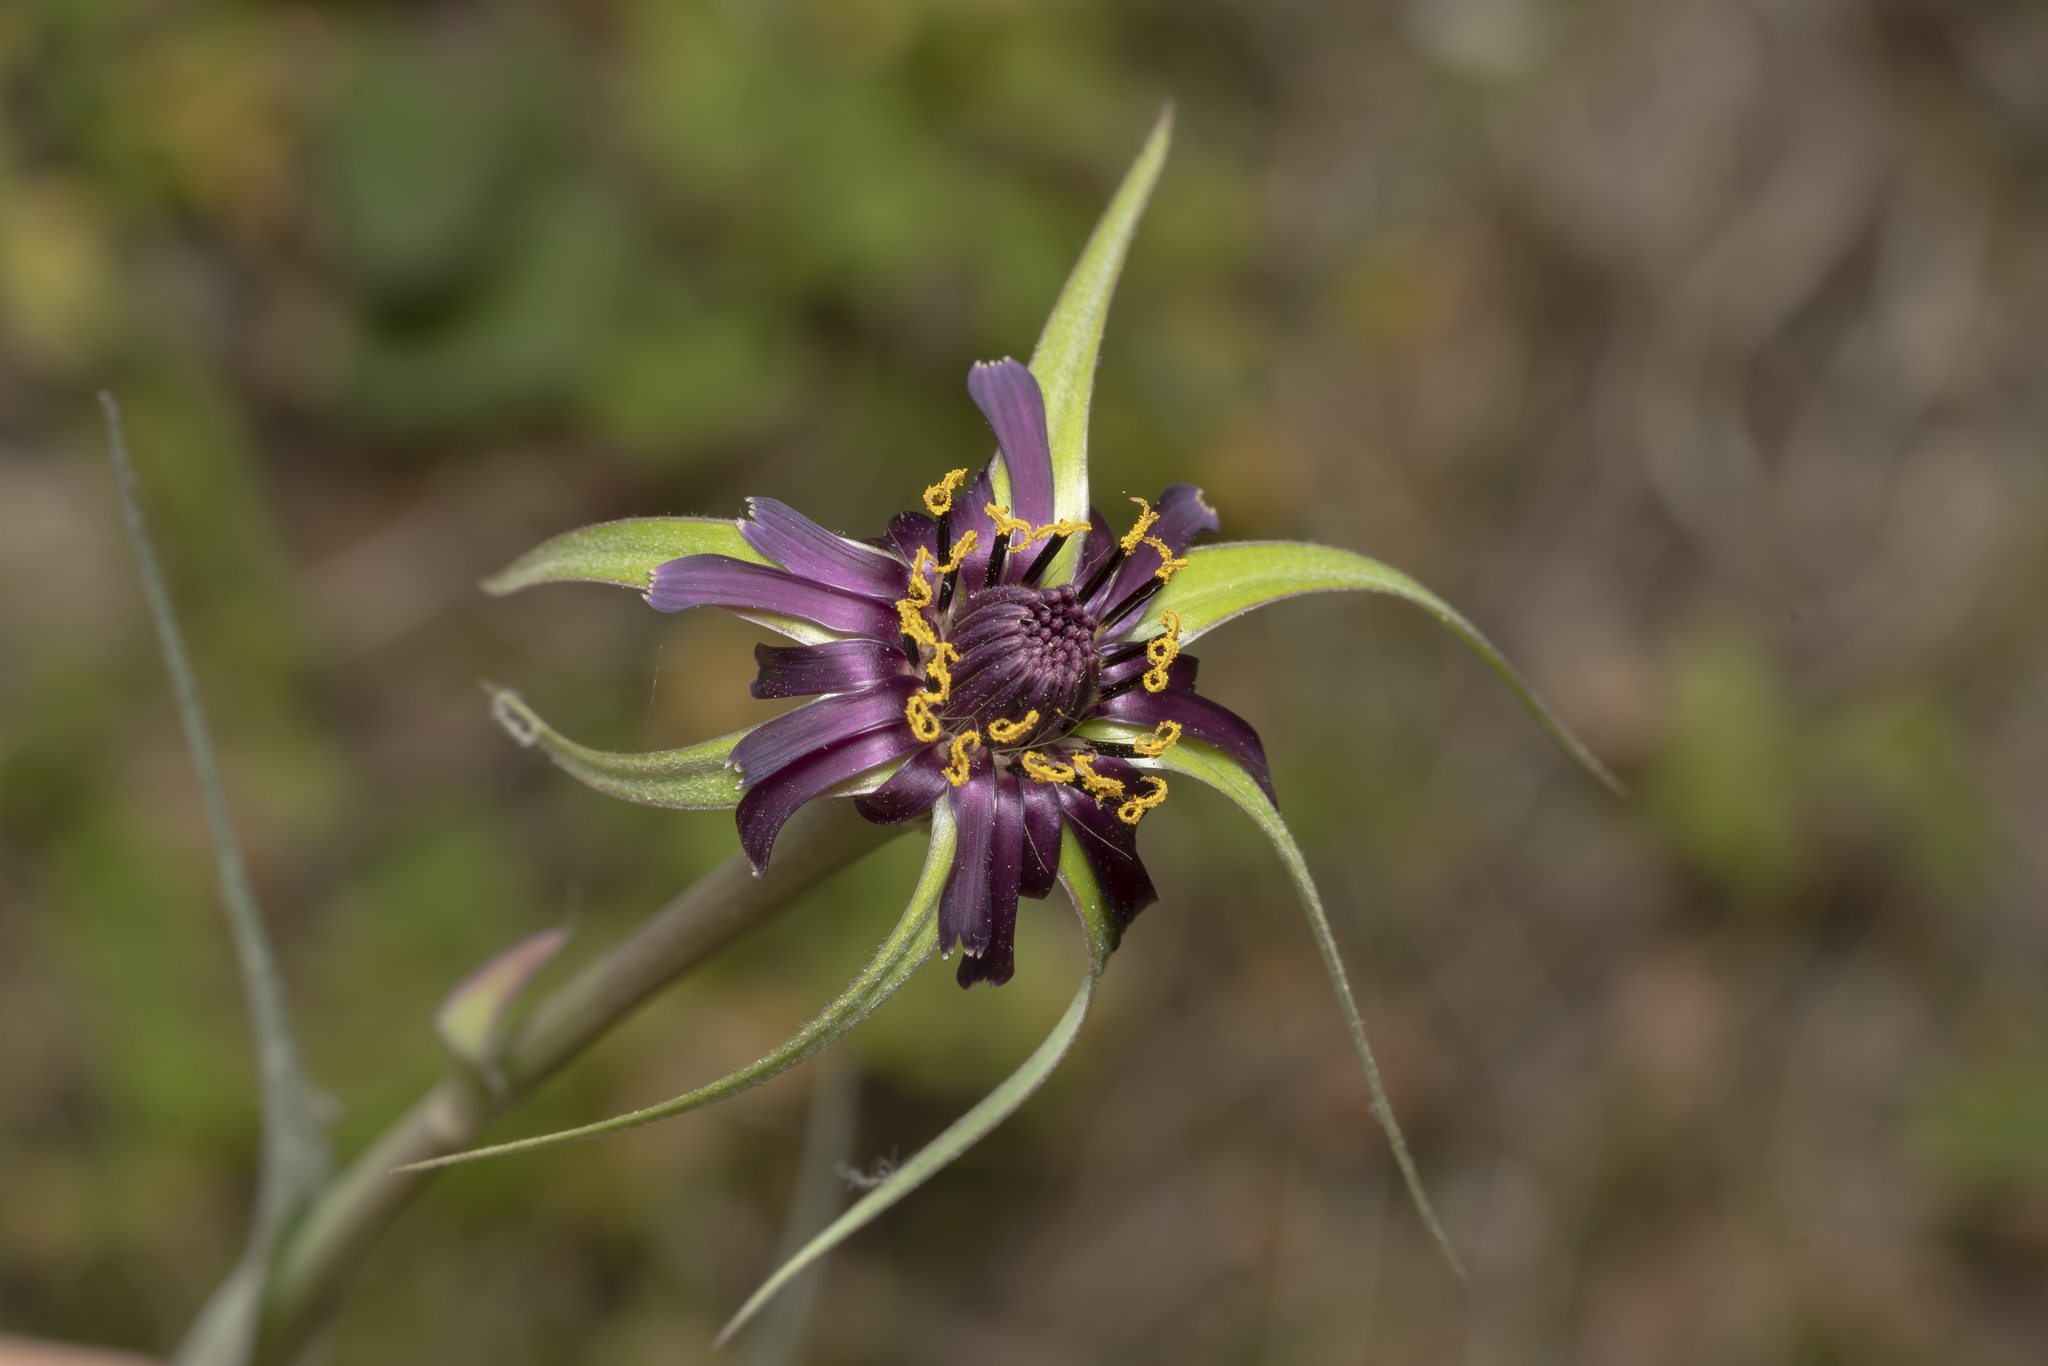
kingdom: Plantae
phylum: Tracheophyta
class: Magnoliopsida
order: Asterales
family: Asteraceae
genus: Tragopogon
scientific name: Tragopogon coelesyriacus
